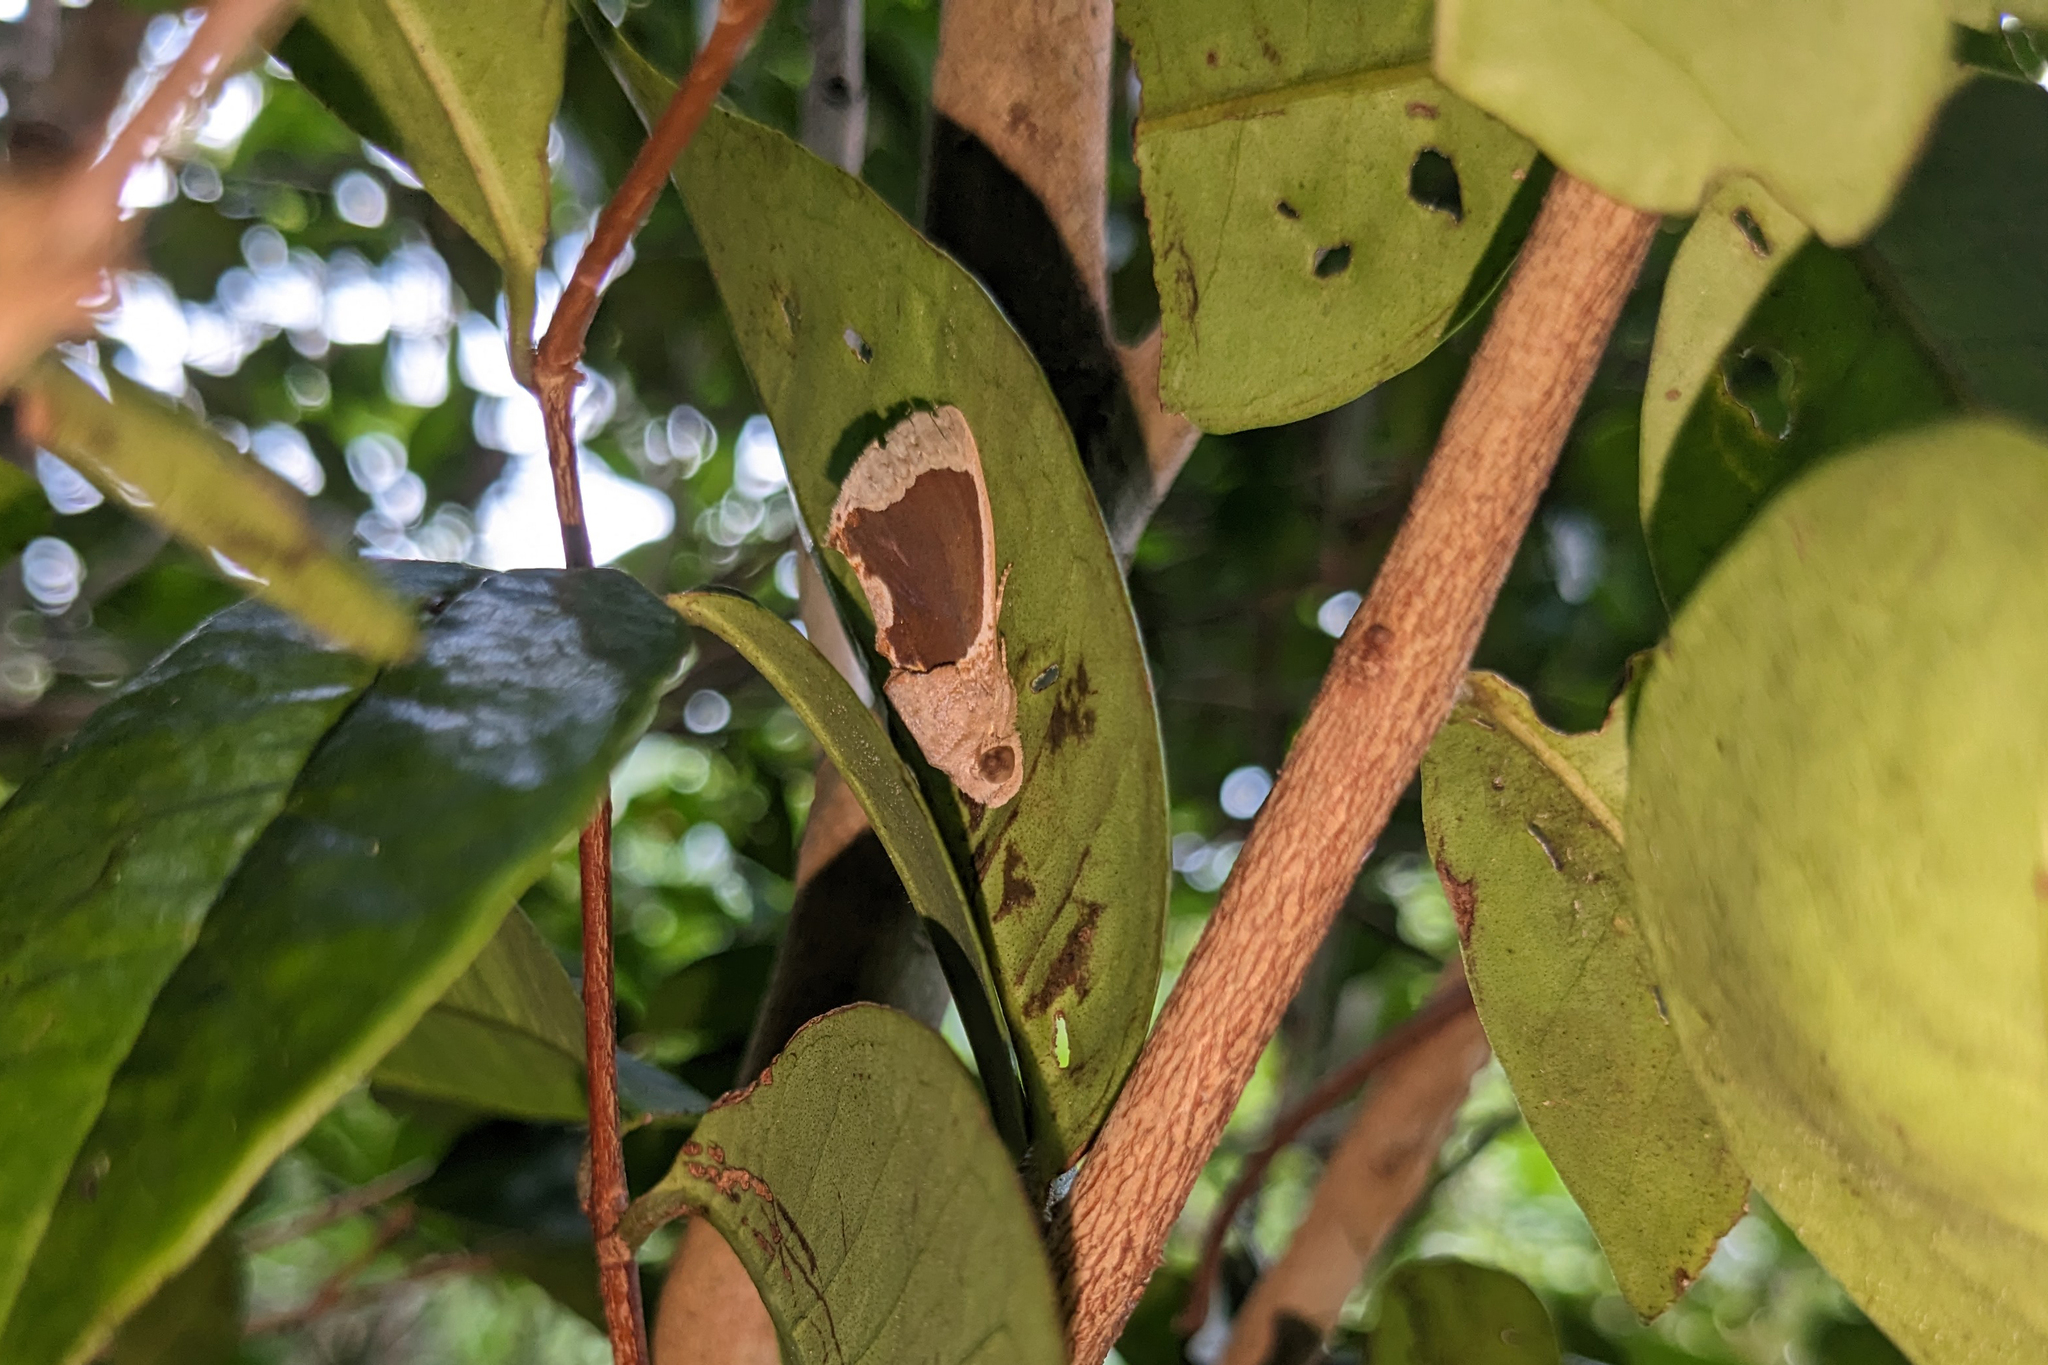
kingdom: Animalia
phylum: Arthropoda
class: Insecta
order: Lepidoptera
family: Erebidae
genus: Gonodonta
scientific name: Gonodonta sinaldus
